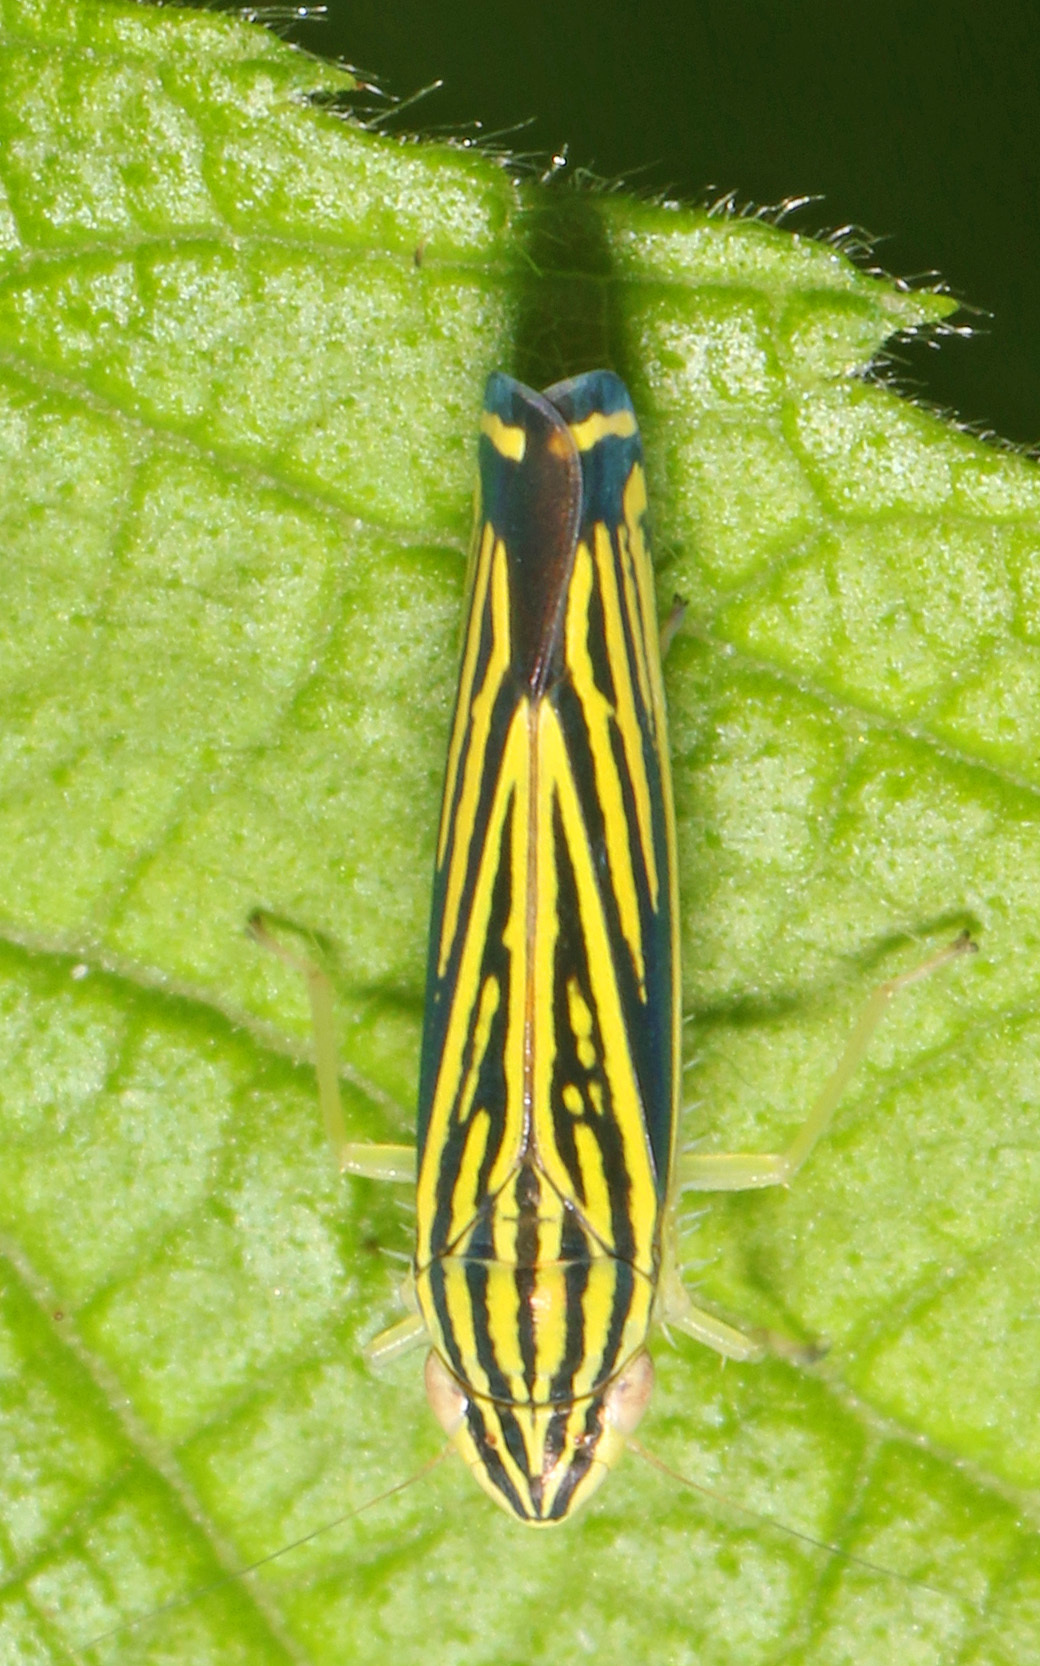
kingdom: Animalia
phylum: Arthropoda
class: Insecta
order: Hemiptera
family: Cicadellidae
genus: Sibovia
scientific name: Sibovia occatoria
